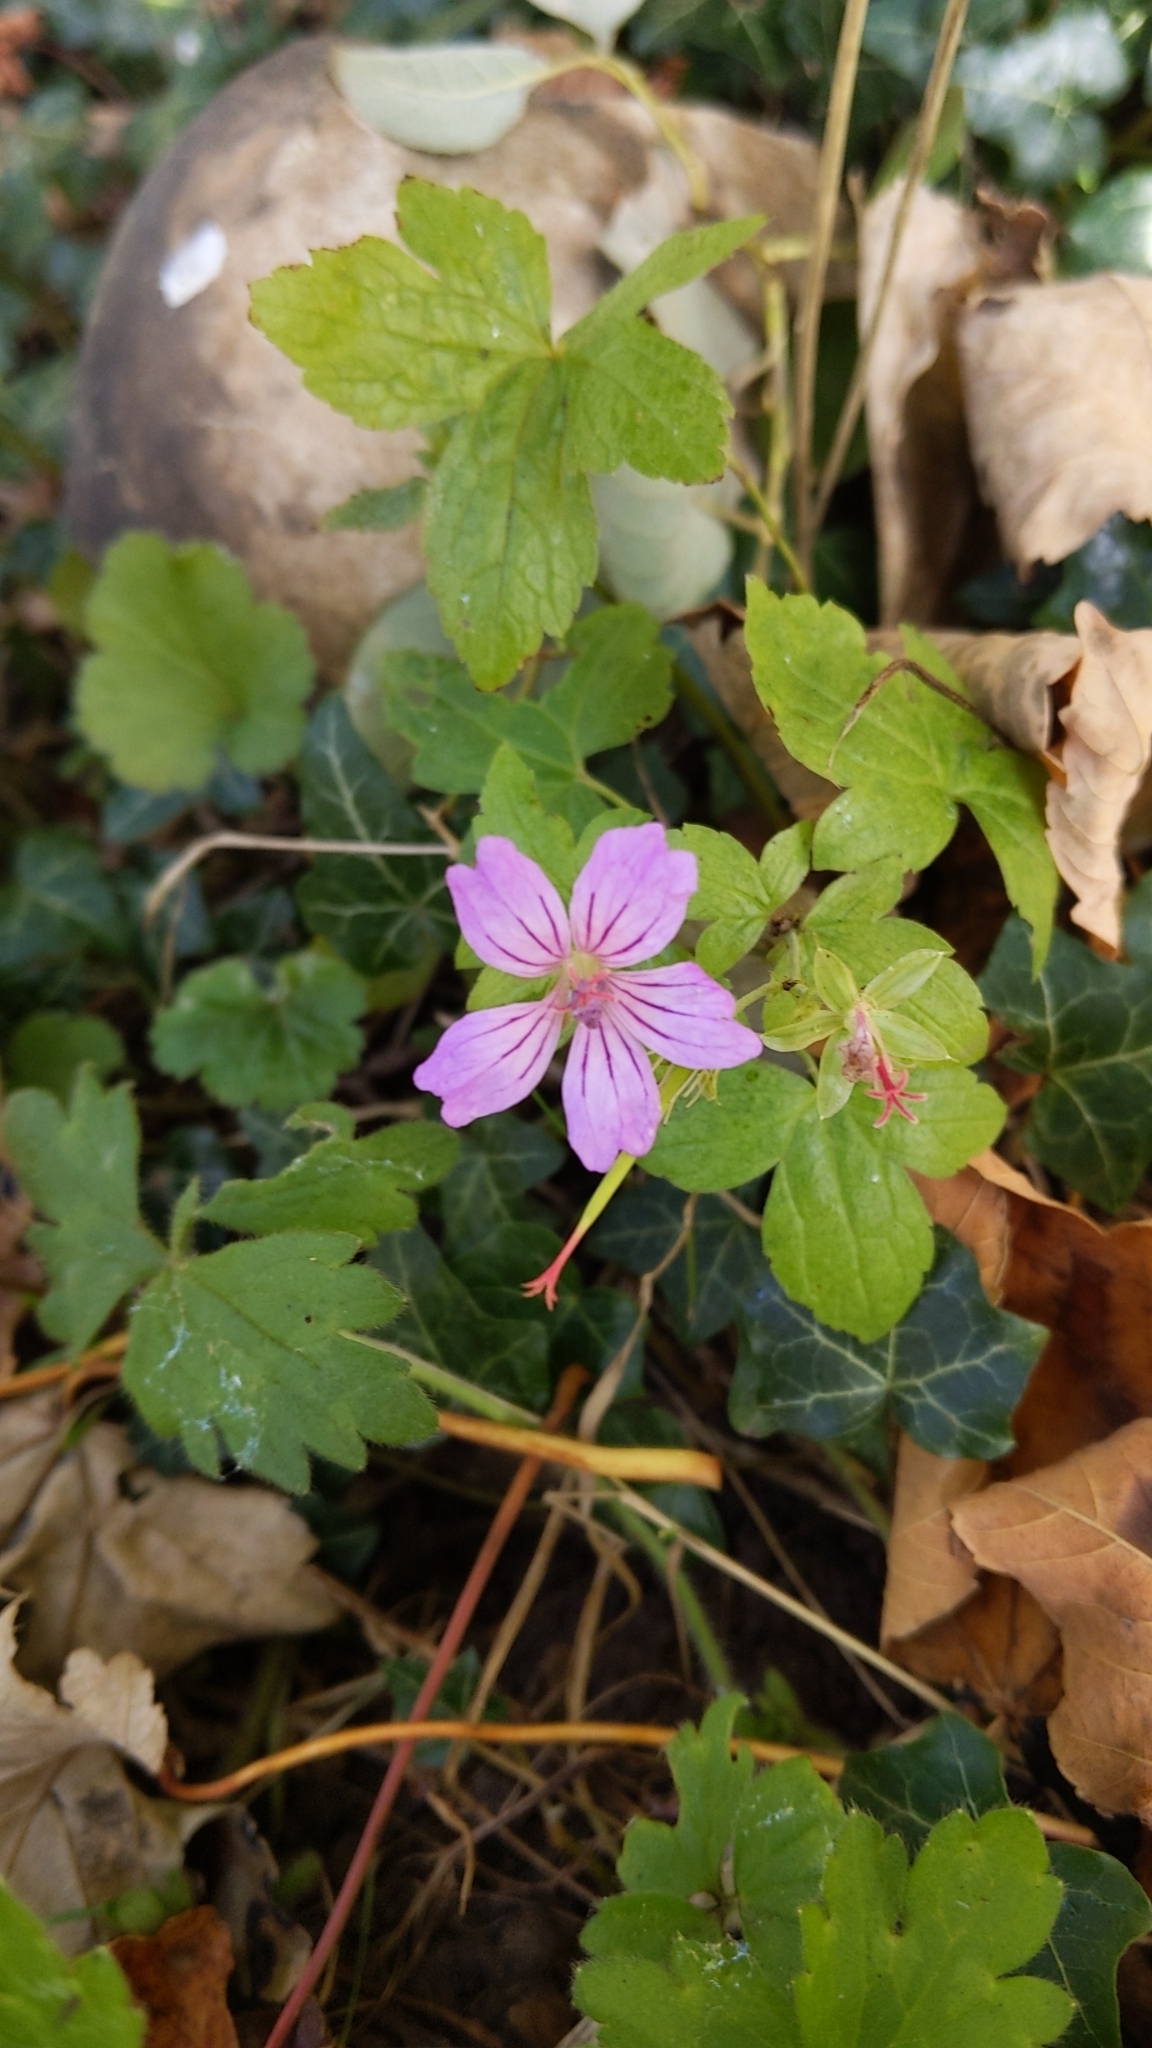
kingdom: Plantae
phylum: Tracheophyta
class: Magnoliopsida
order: Geraniales
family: Geraniaceae
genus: Geranium
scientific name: Geranium nodosum
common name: Knotted crane's-bill
